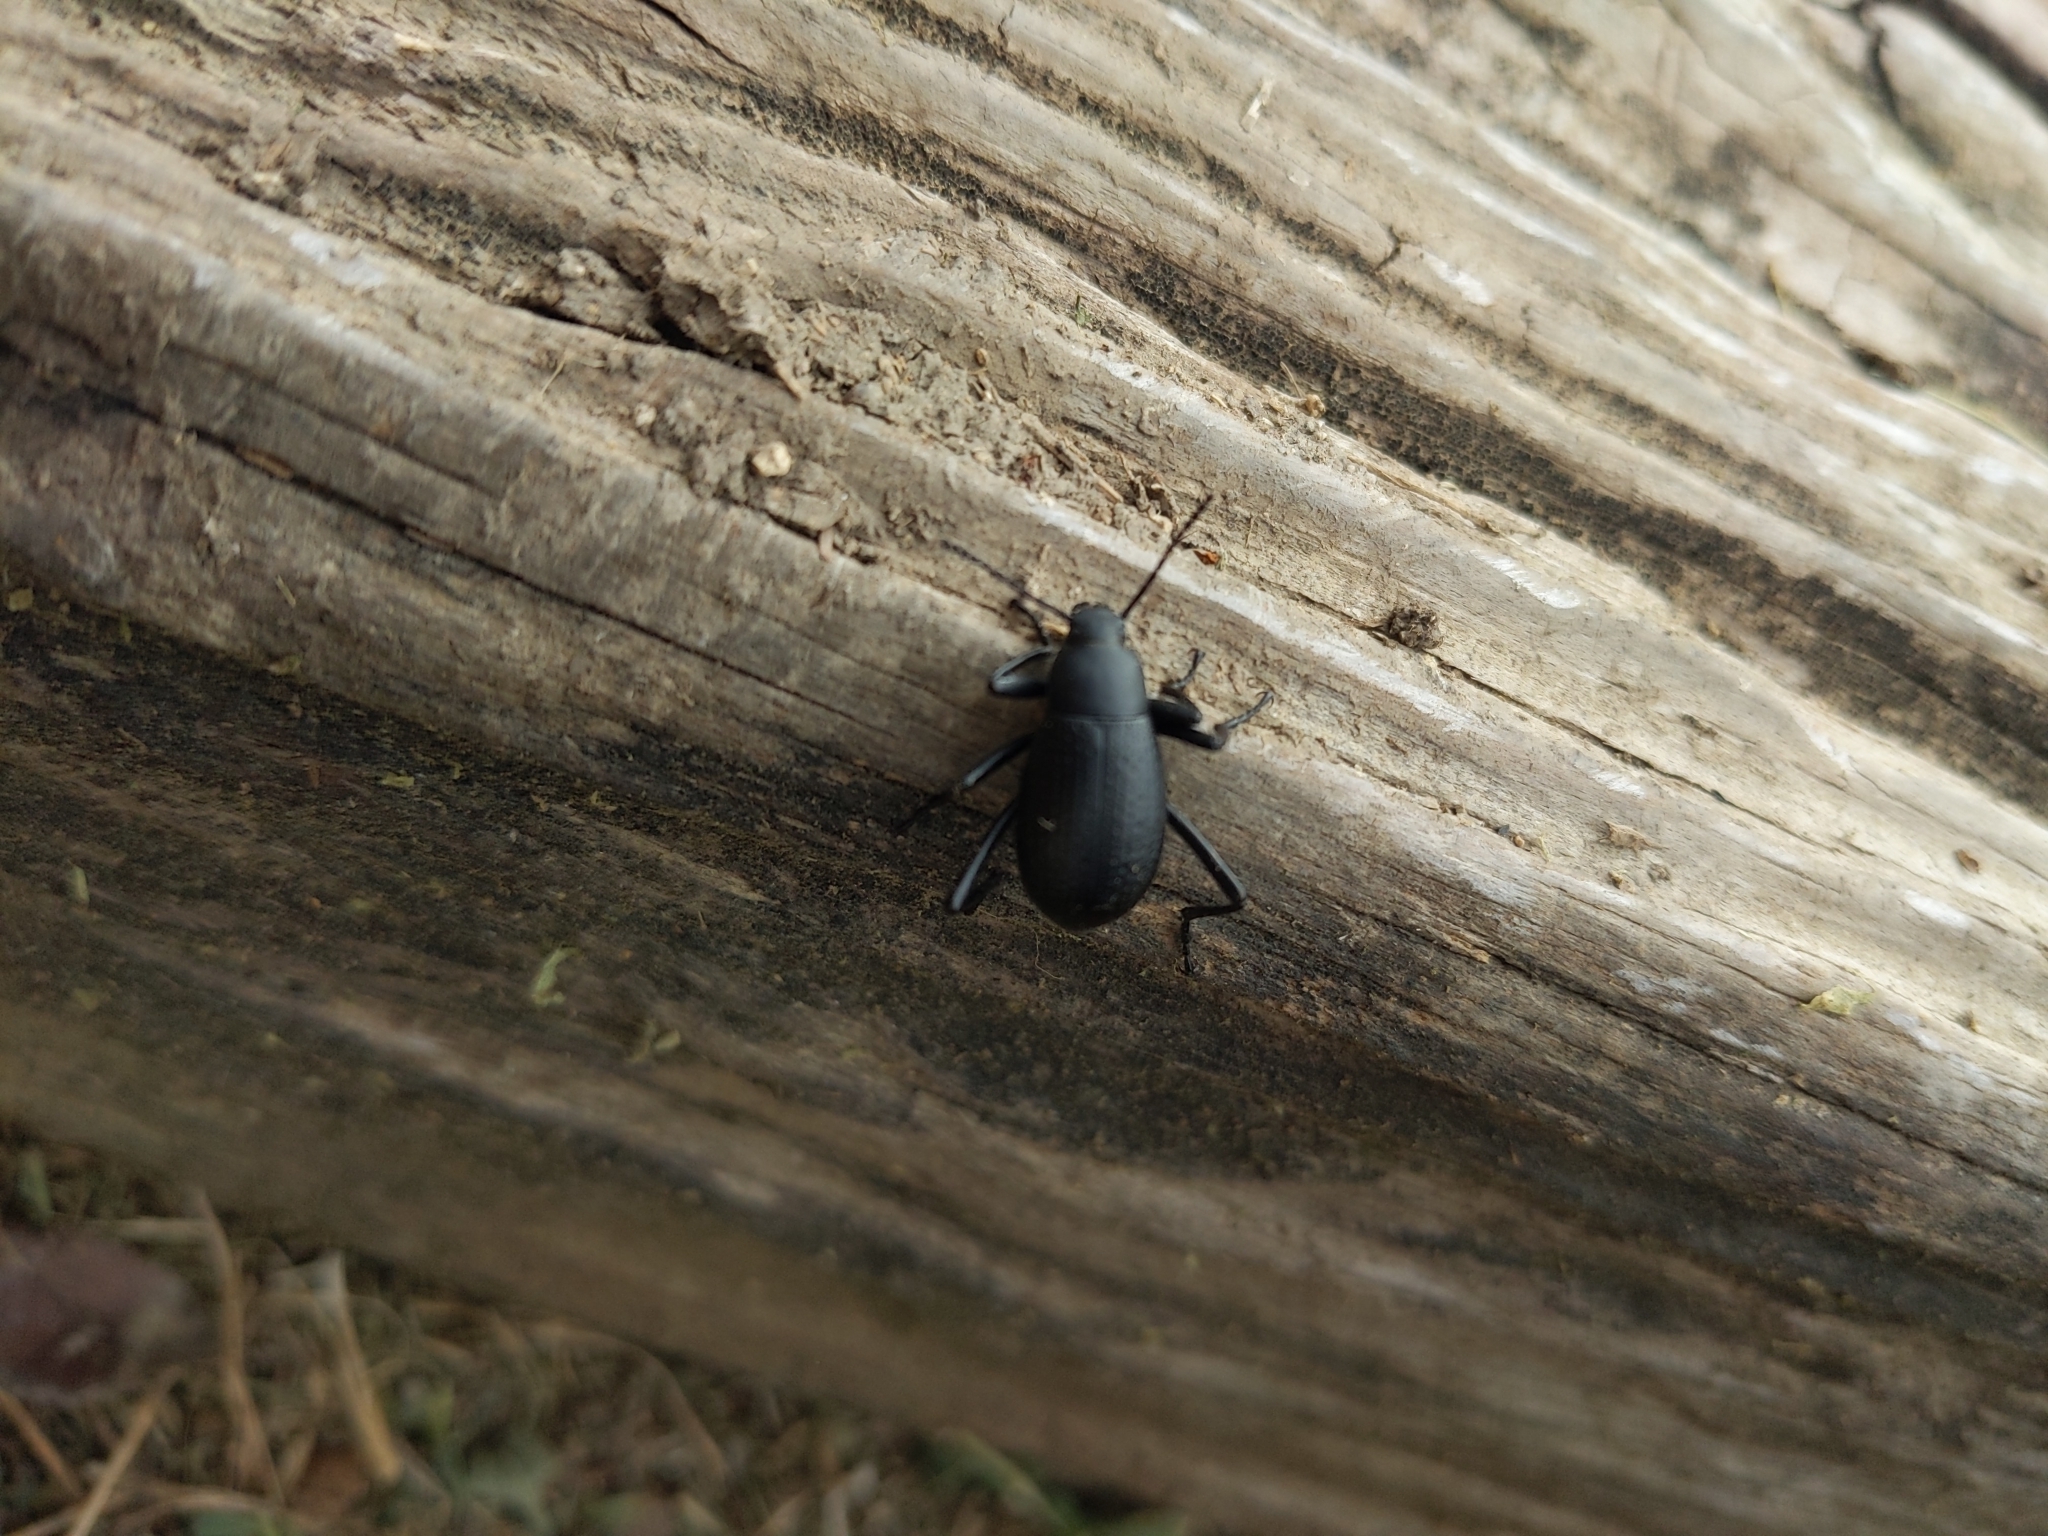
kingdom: Animalia
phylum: Arthropoda
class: Insecta
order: Coleoptera
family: Tenebrionidae
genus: Eleodes
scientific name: Eleodes goryi
